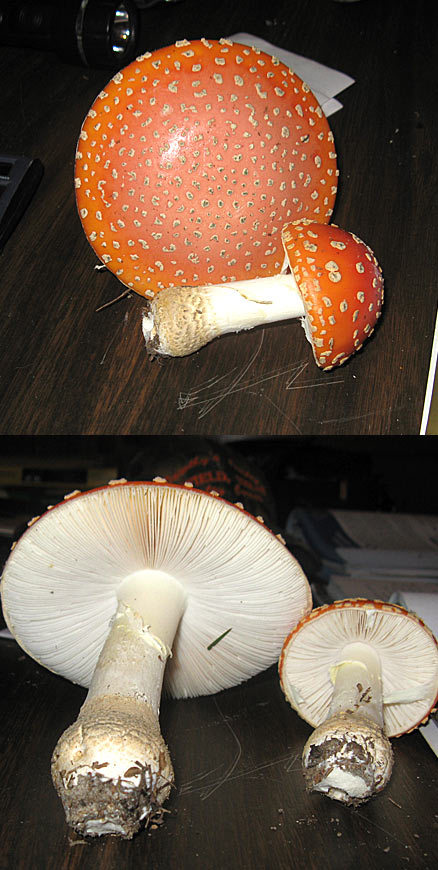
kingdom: Fungi
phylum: Basidiomycota
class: Agaricomycetes
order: Agaricales
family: Amanitaceae
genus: Amanita
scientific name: Amanita persicina
